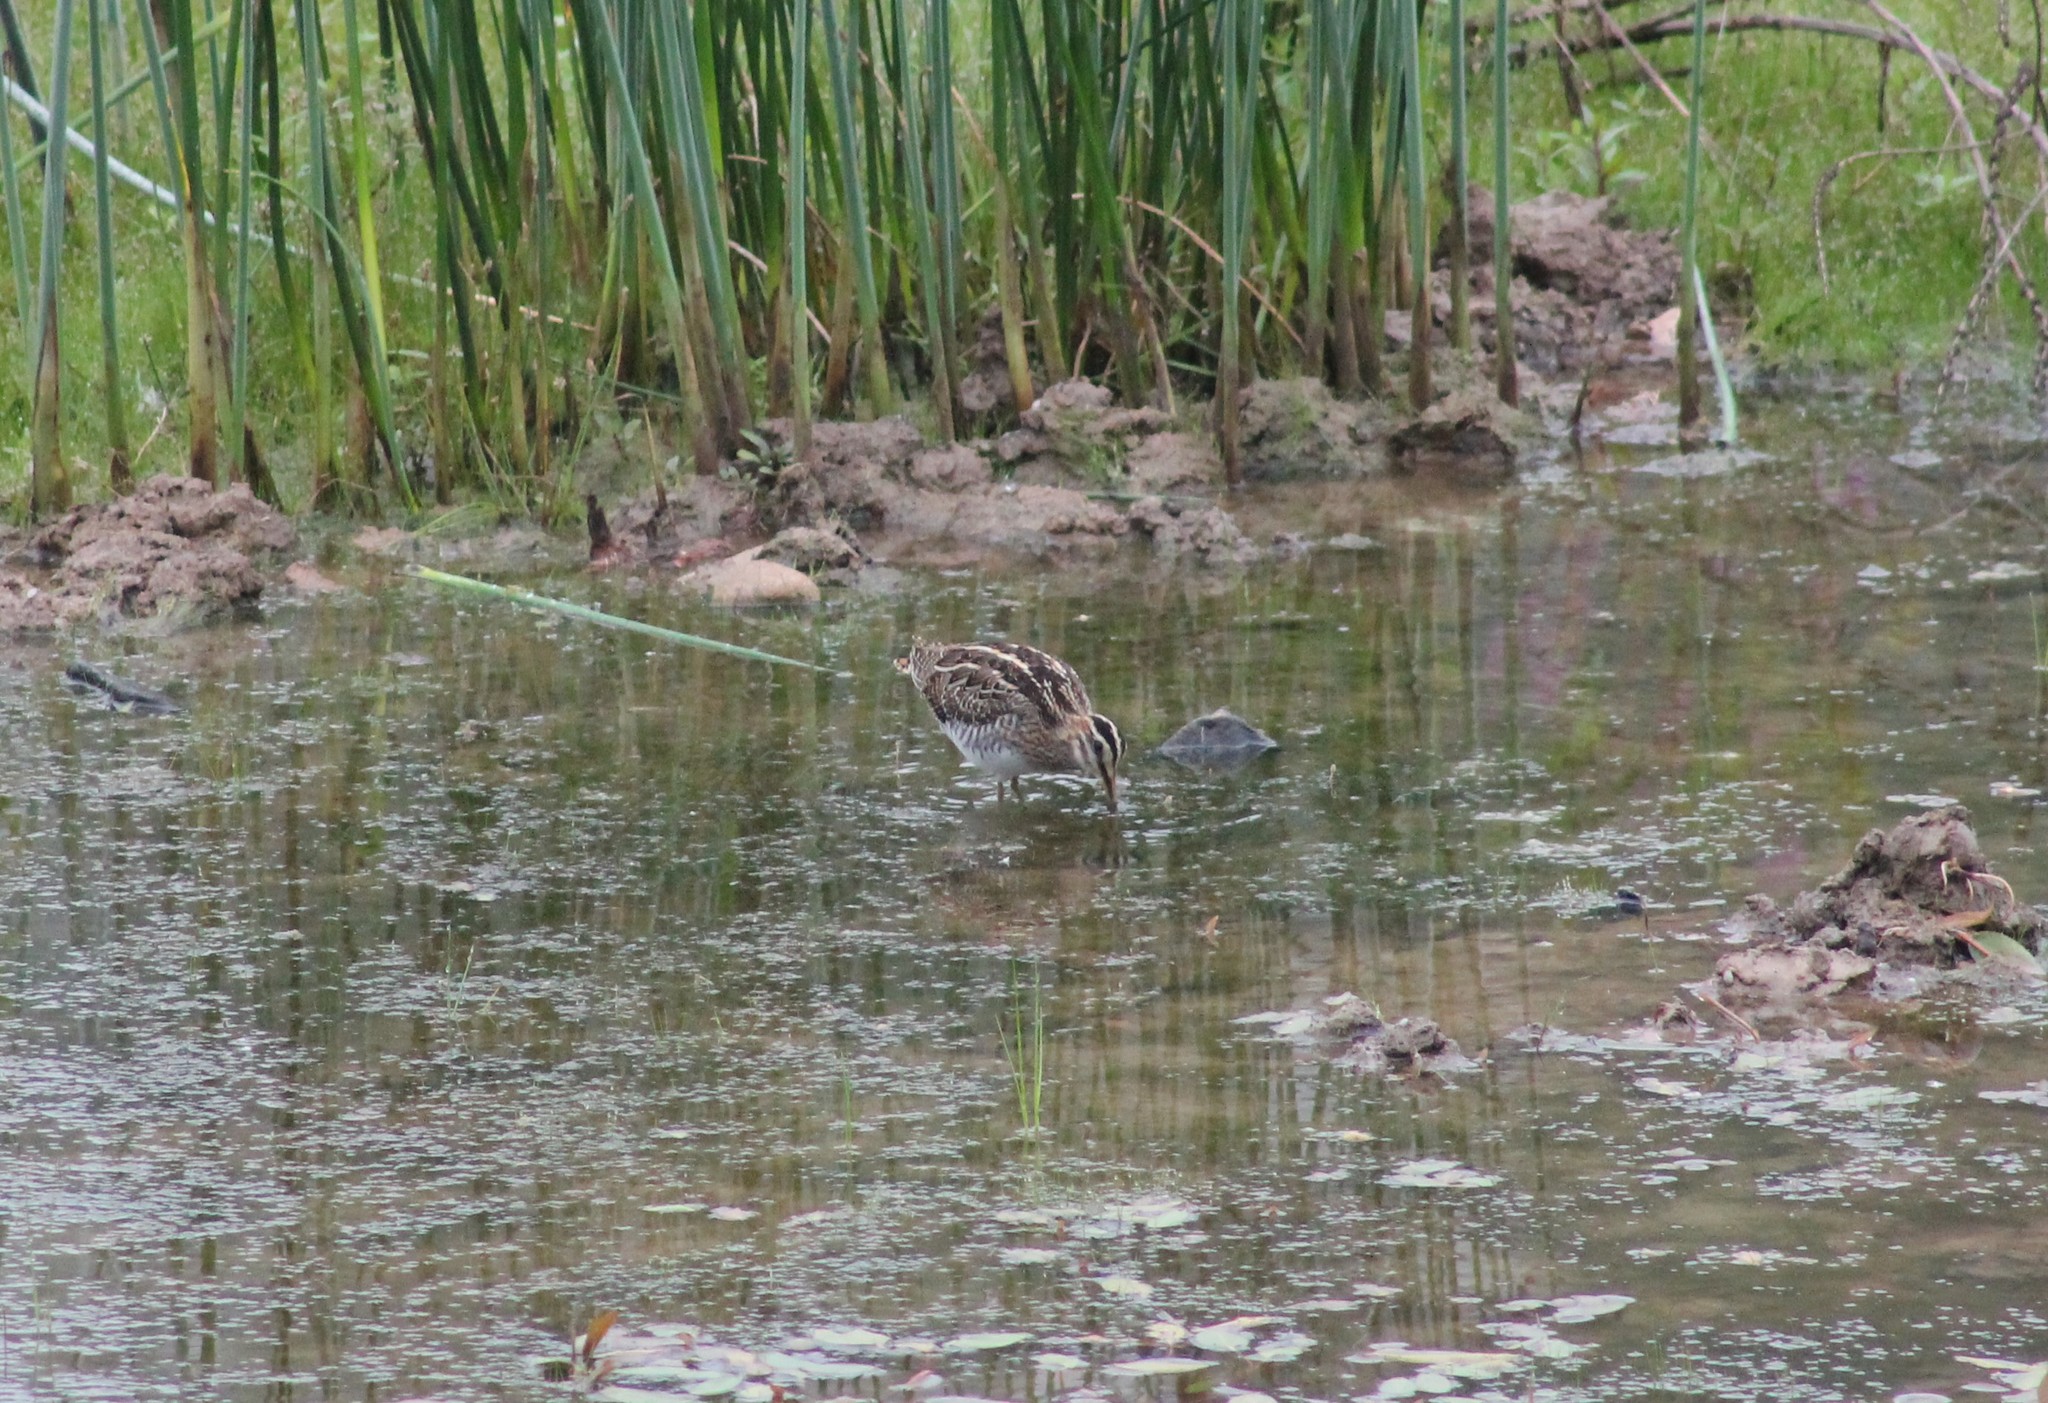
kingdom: Animalia
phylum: Chordata
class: Aves
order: Charadriiformes
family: Scolopacidae
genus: Gallinago
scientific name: Gallinago gallinago
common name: Common snipe
